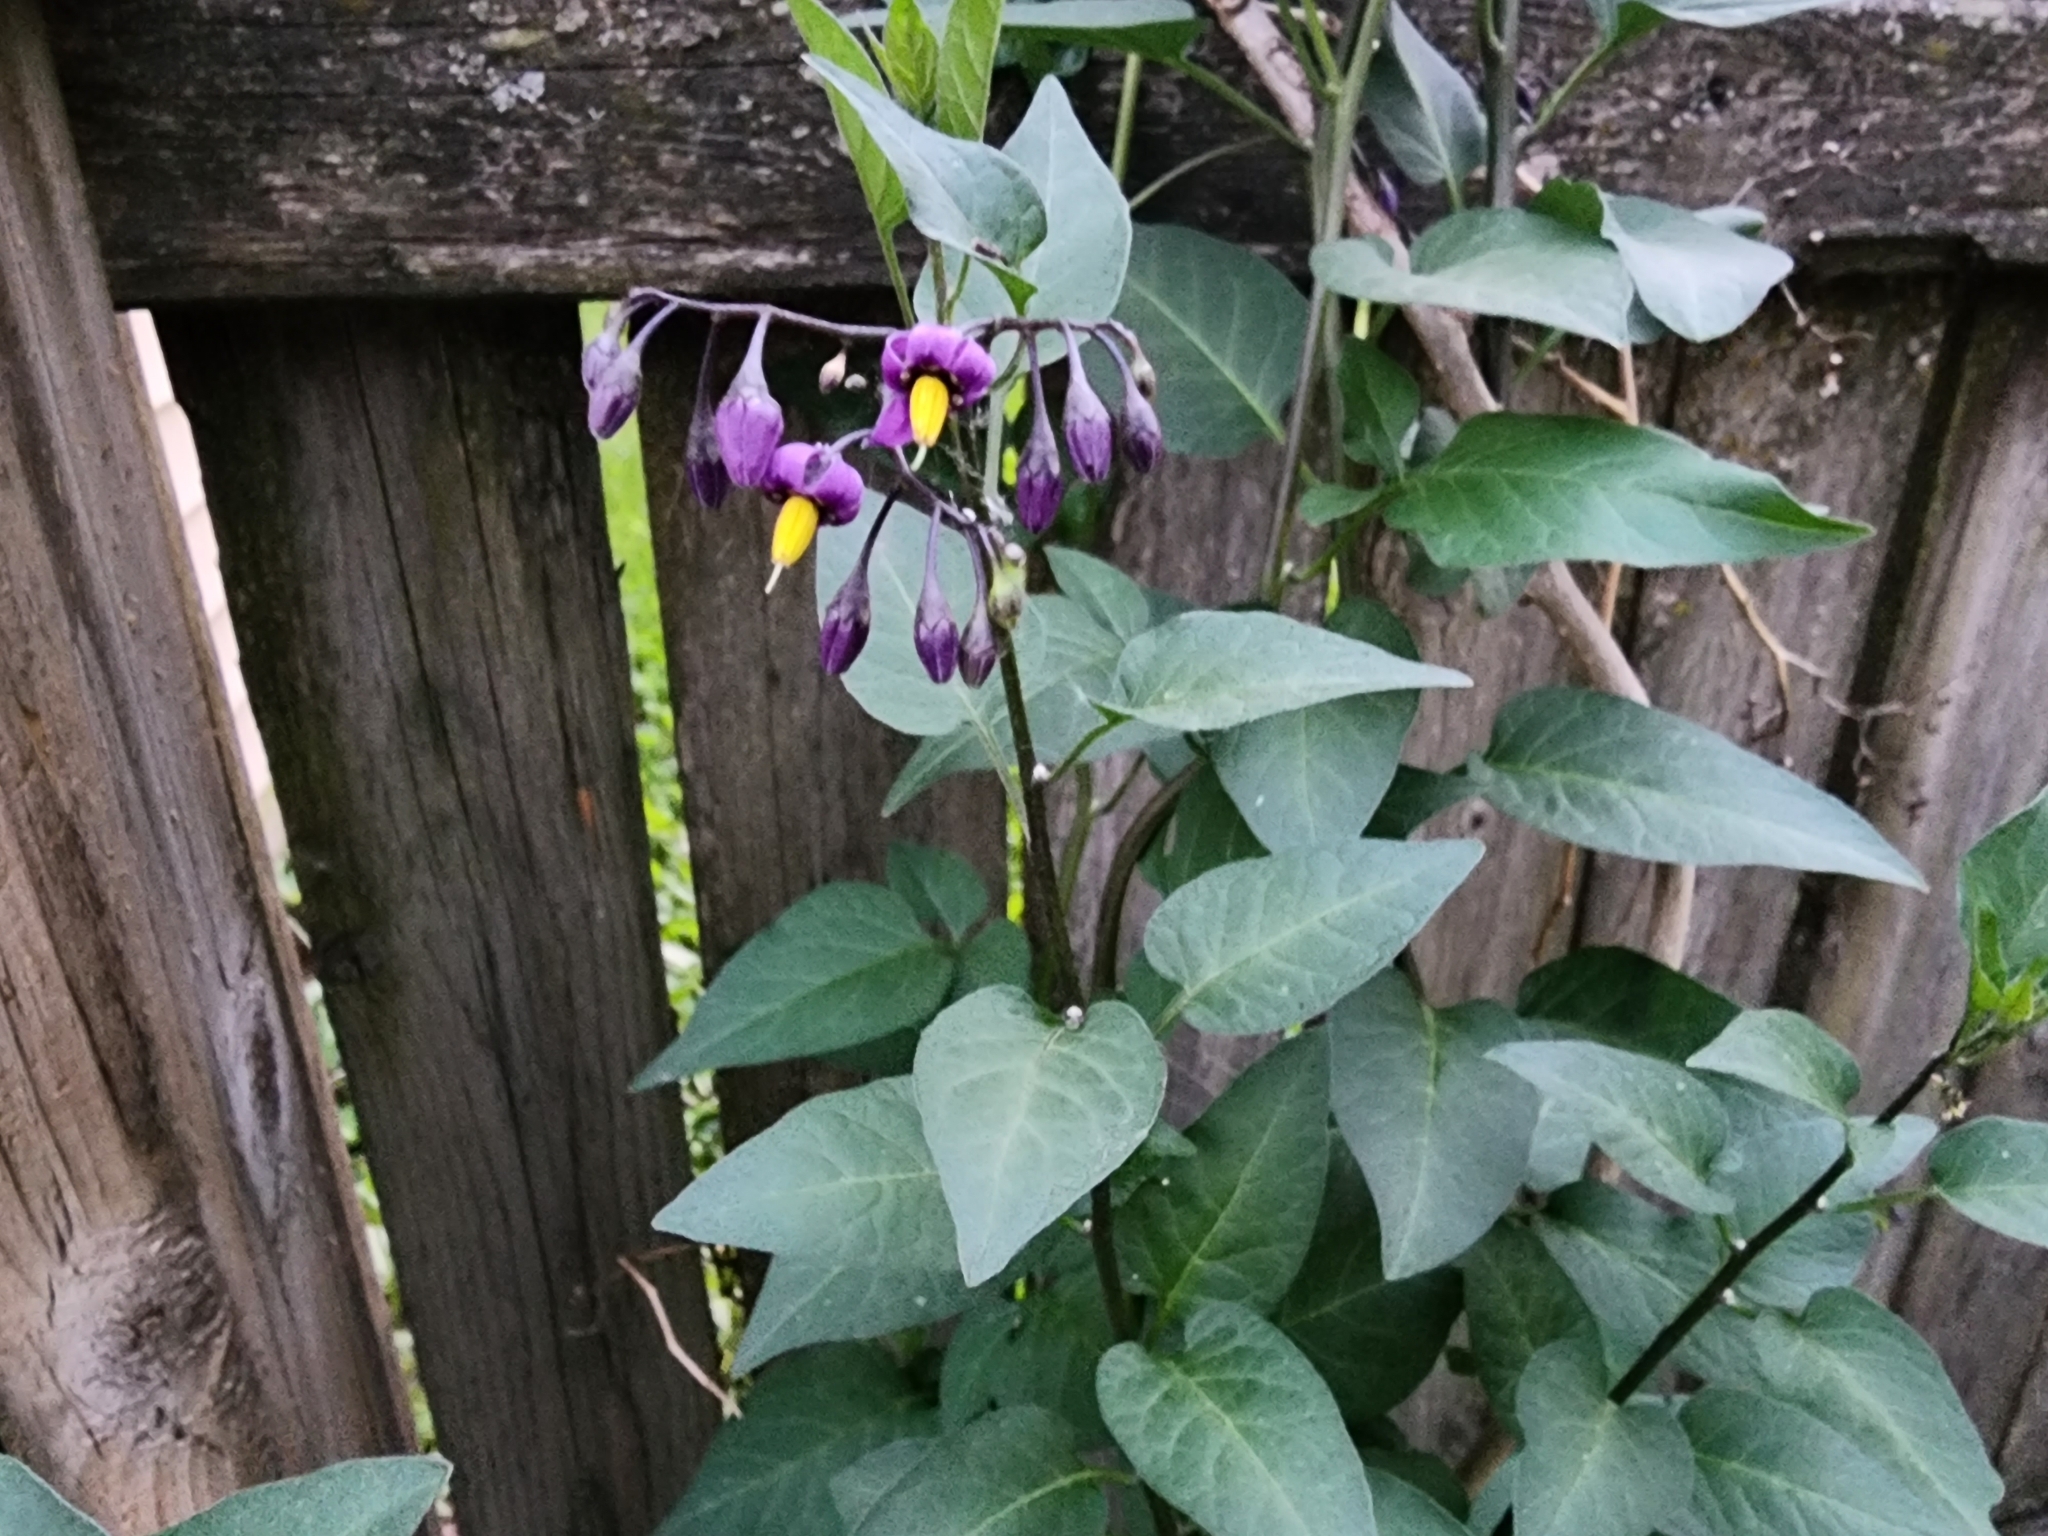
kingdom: Plantae
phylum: Tracheophyta
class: Magnoliopsida
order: Solanales
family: Solanaceae
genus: Solanum
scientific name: Solanum dulcamara
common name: Climbing nightshade
